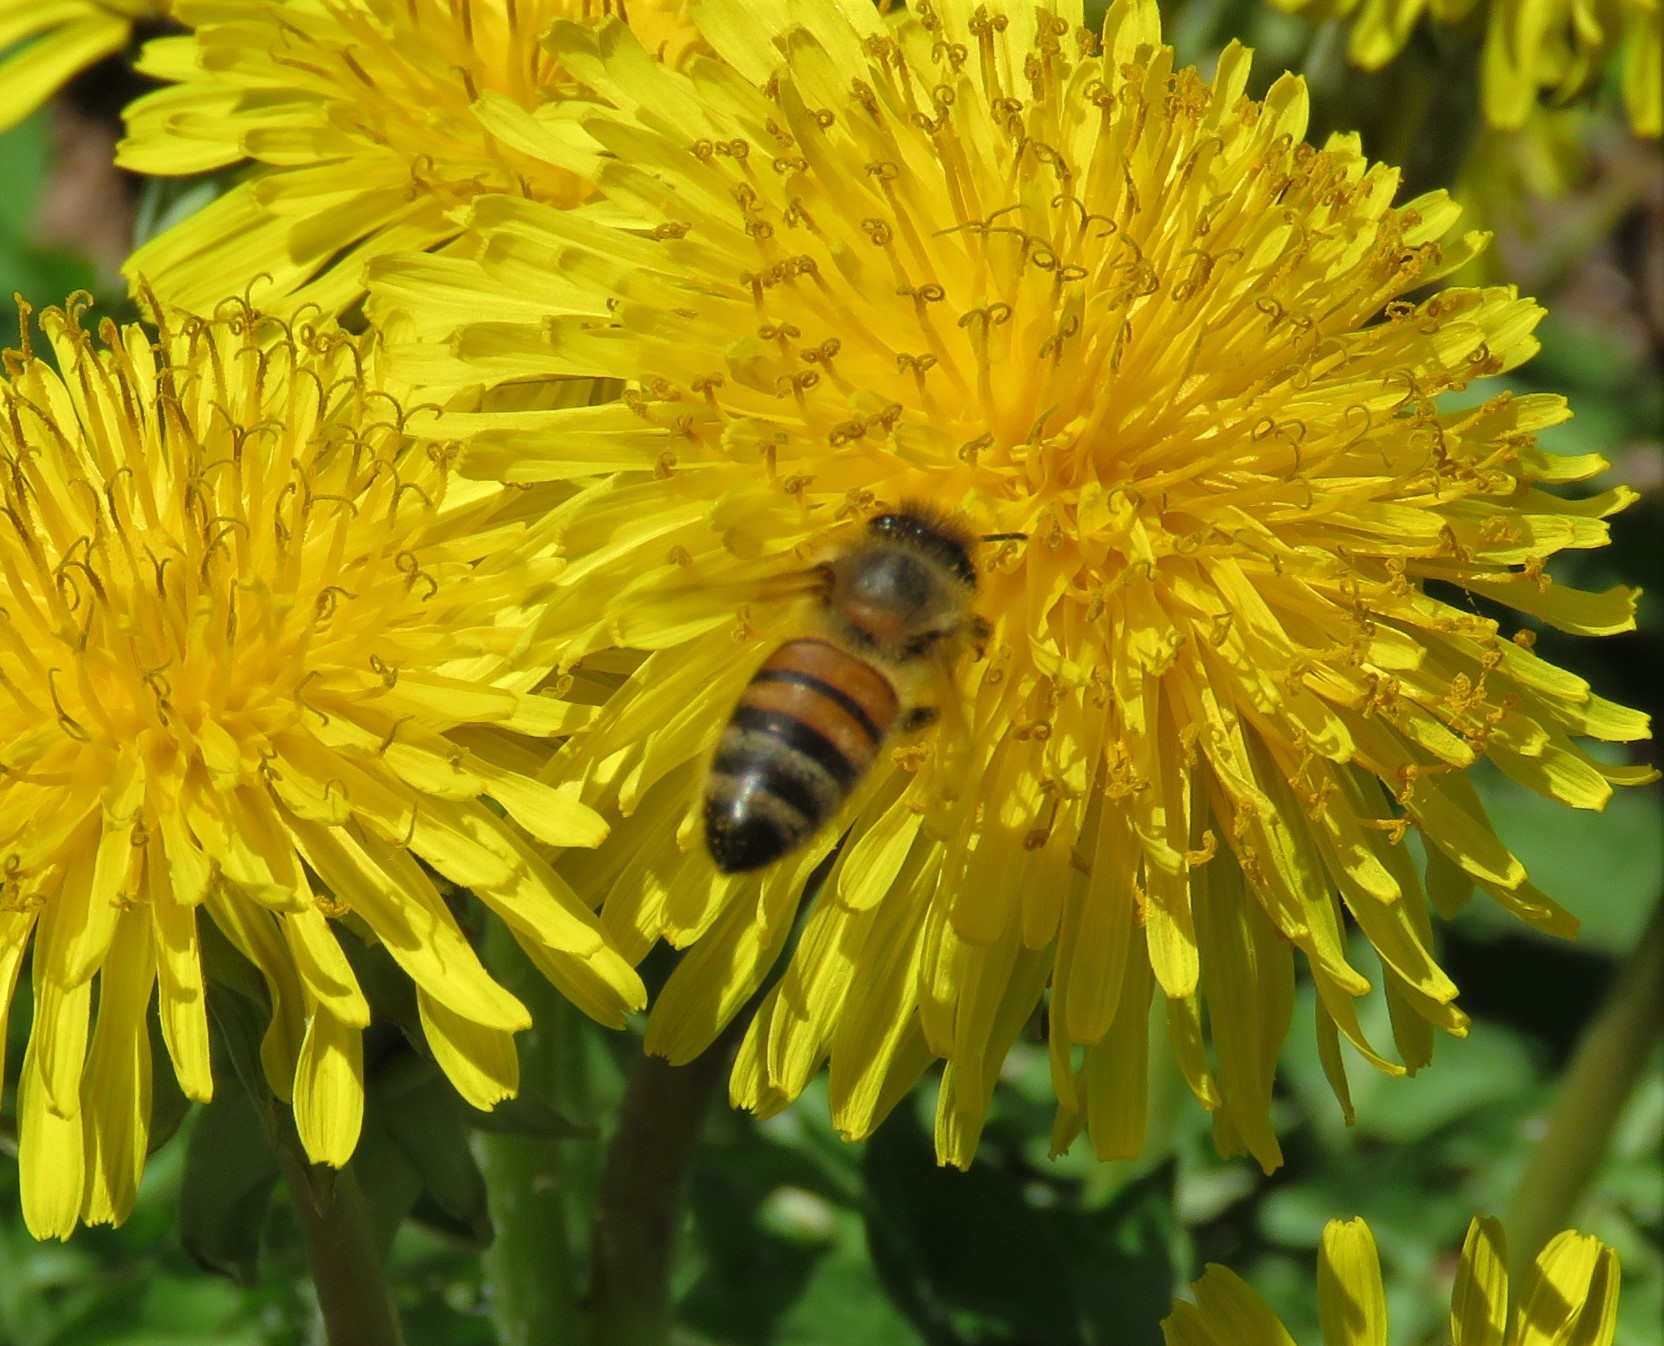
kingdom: Animalia
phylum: Arthropoda
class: Insecta
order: Hymenoptera
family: Apidae
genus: Apis
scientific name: Apis mellifera
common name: Honey bee
